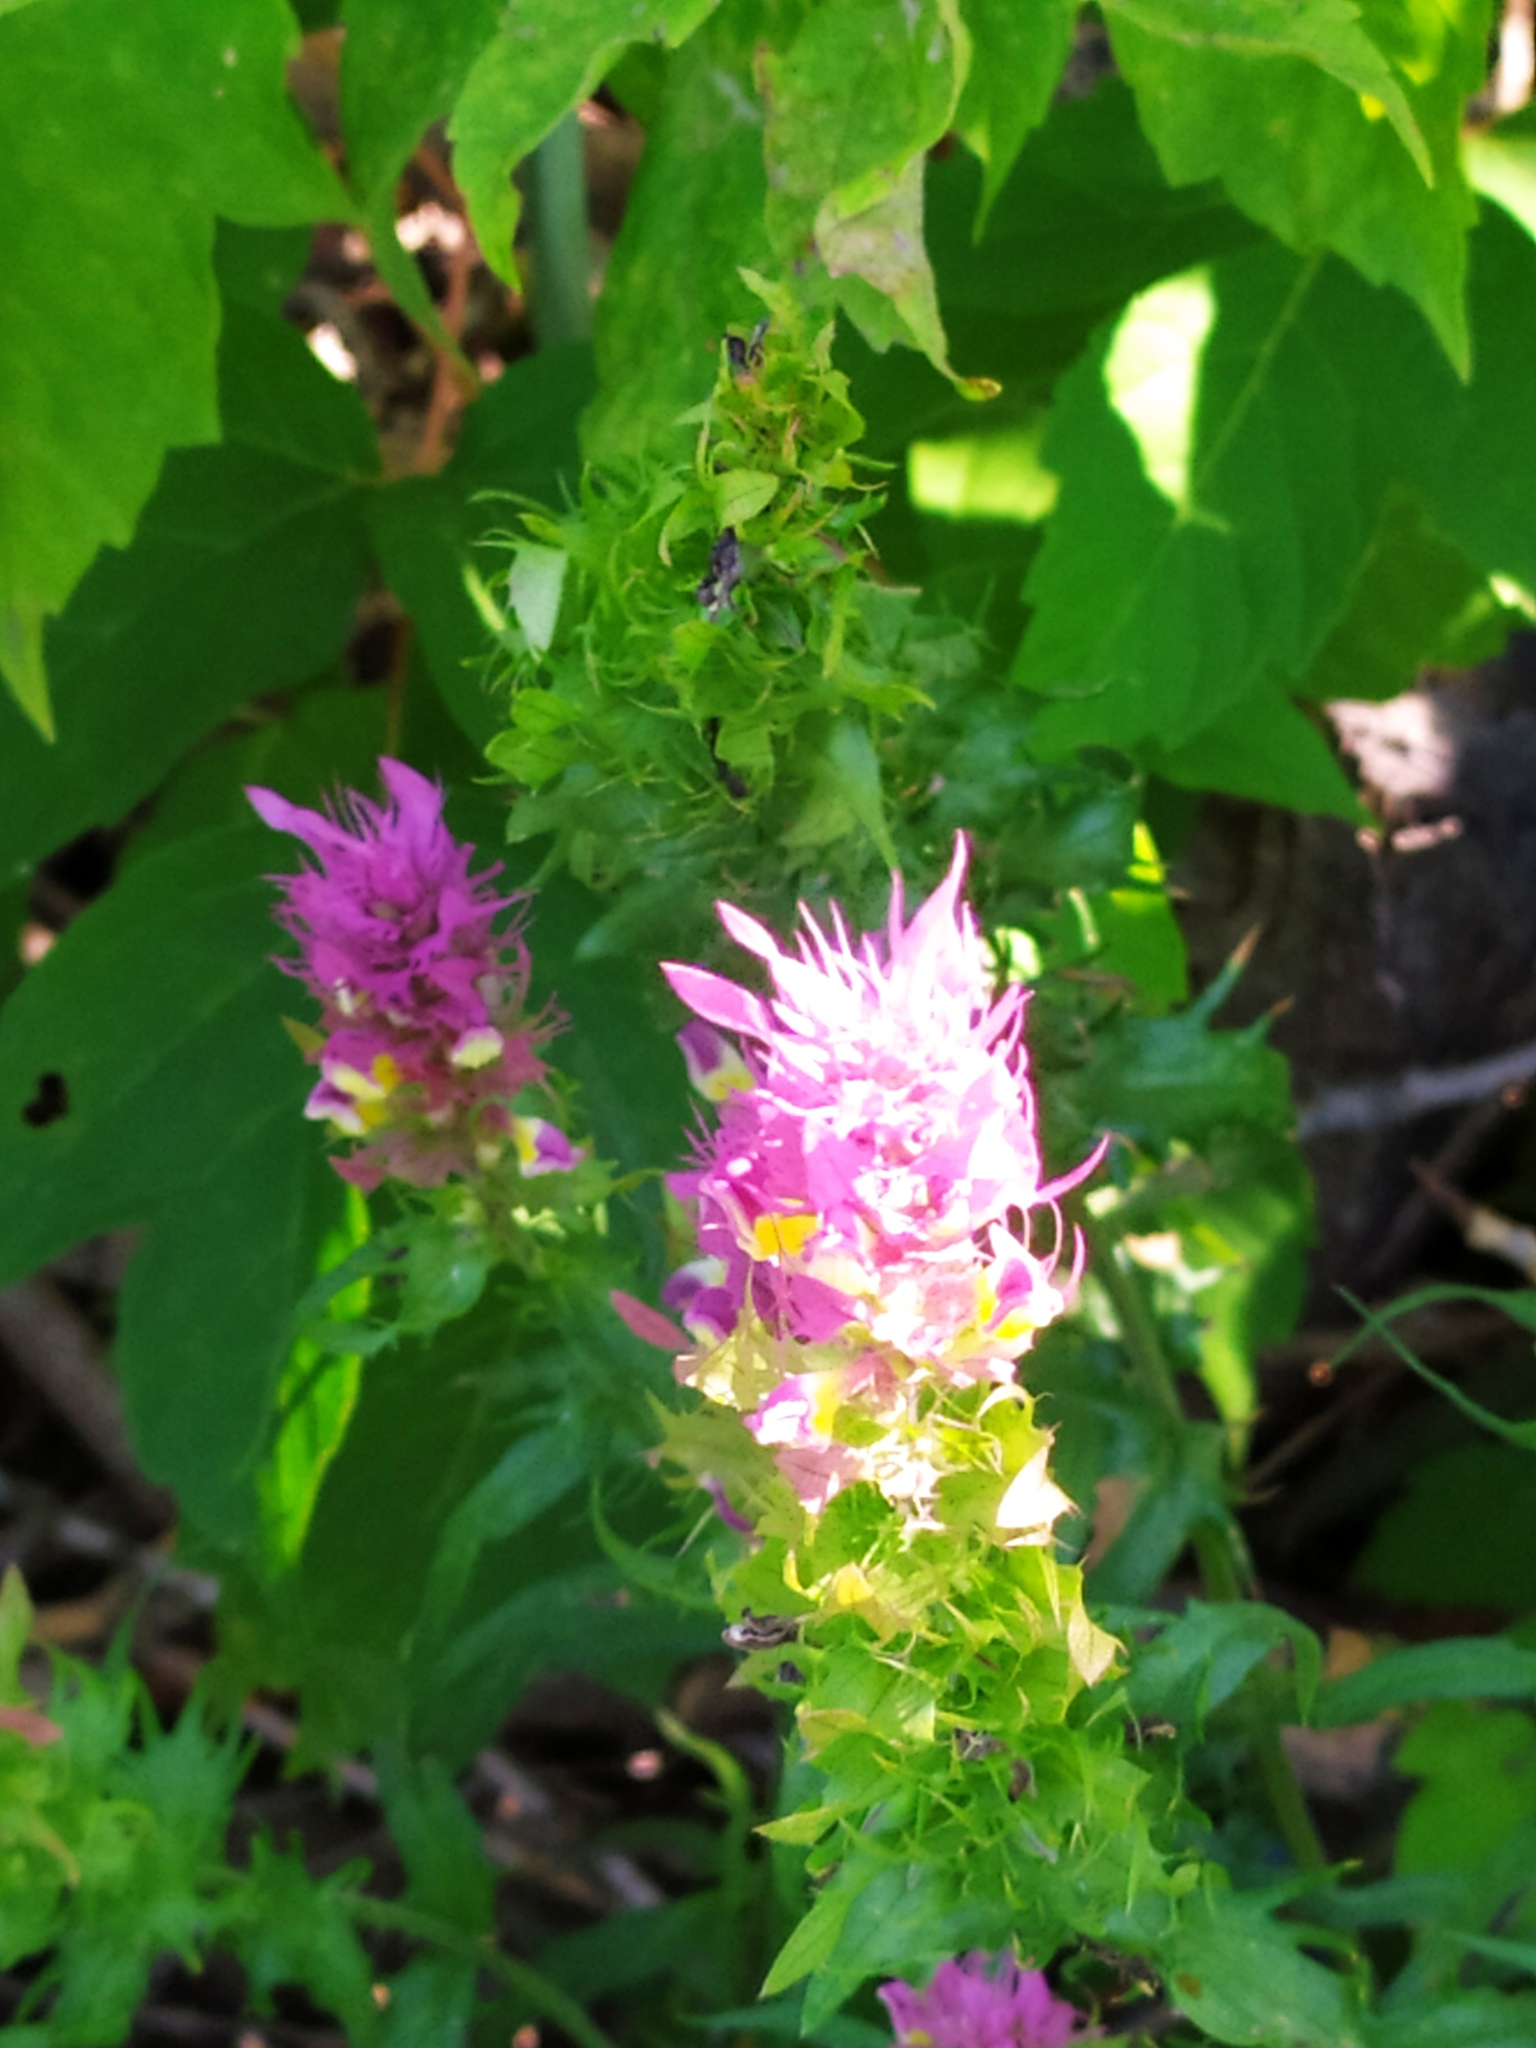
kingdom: Plantae
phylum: Tracheophyta
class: Magnoliopsida
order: Lamiales
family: Orobanchaceae
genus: Melampyrum
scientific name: Melampyrum arvense
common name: Field cow-wheat
